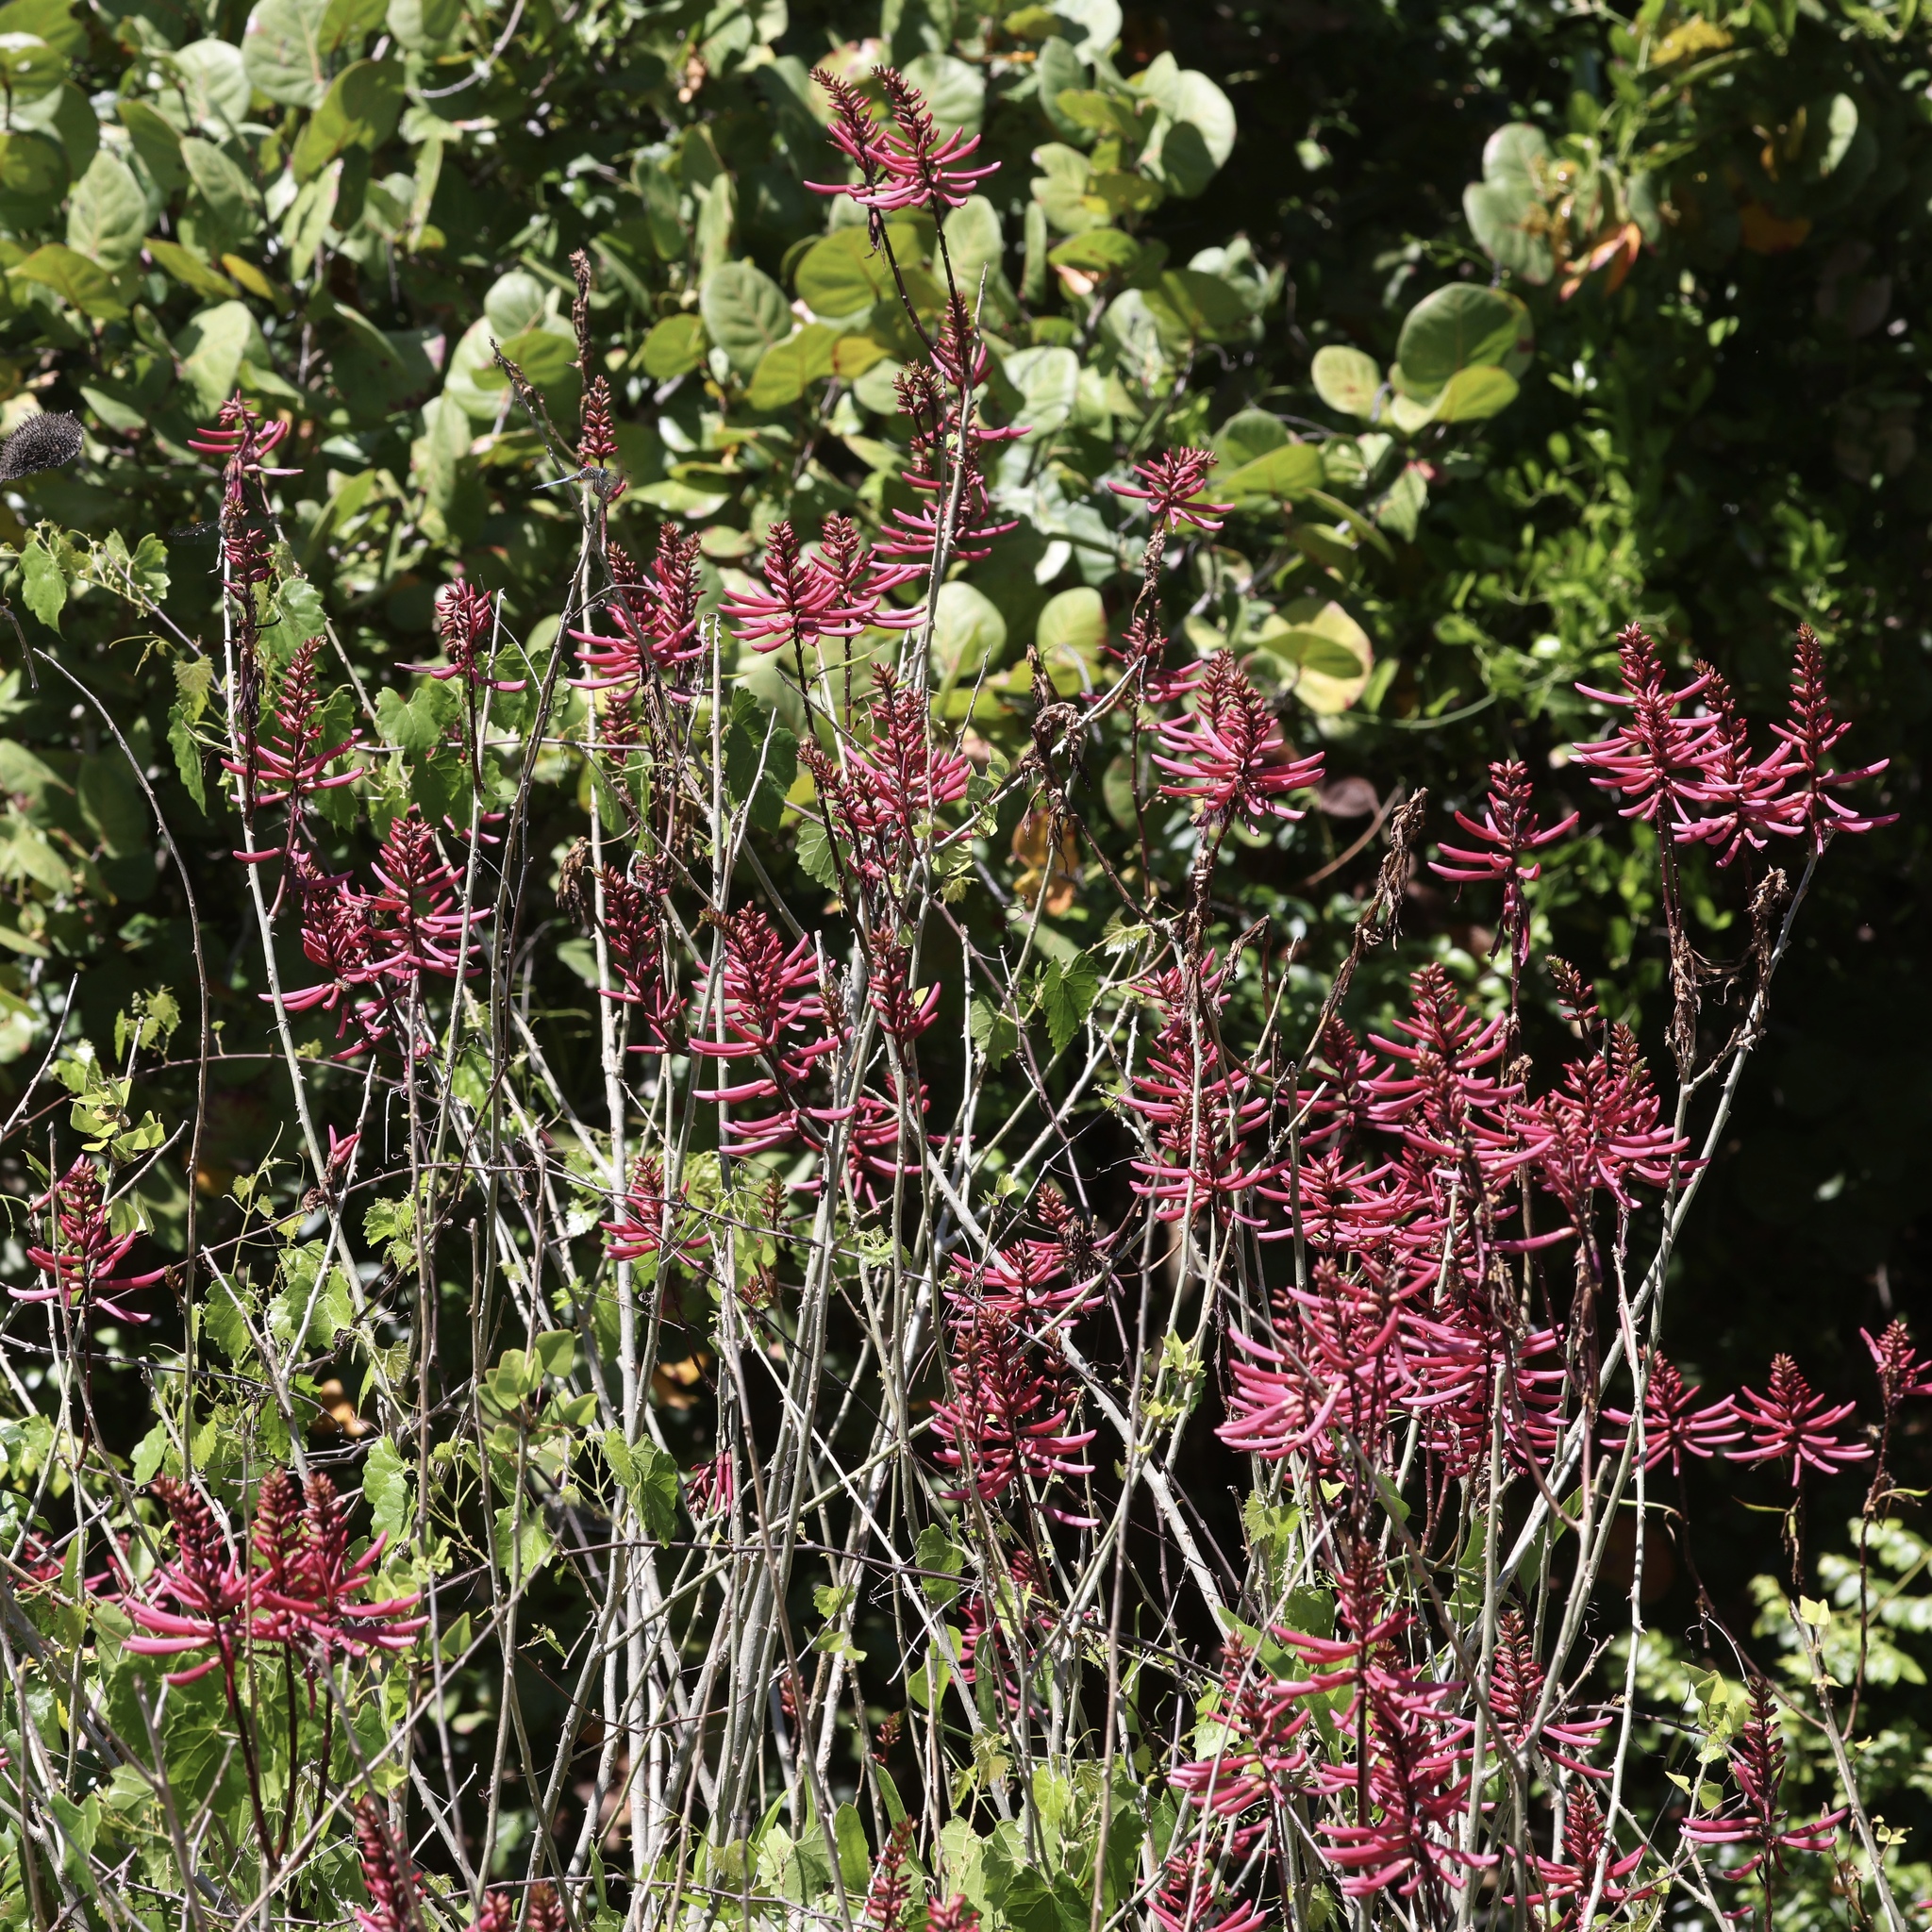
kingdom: Plantae
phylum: Tracheophyta
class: Magnoliopsida
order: Fabales
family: Fabaceae
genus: Erythrina
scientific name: Erythrina herbacea
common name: Coral-bean
